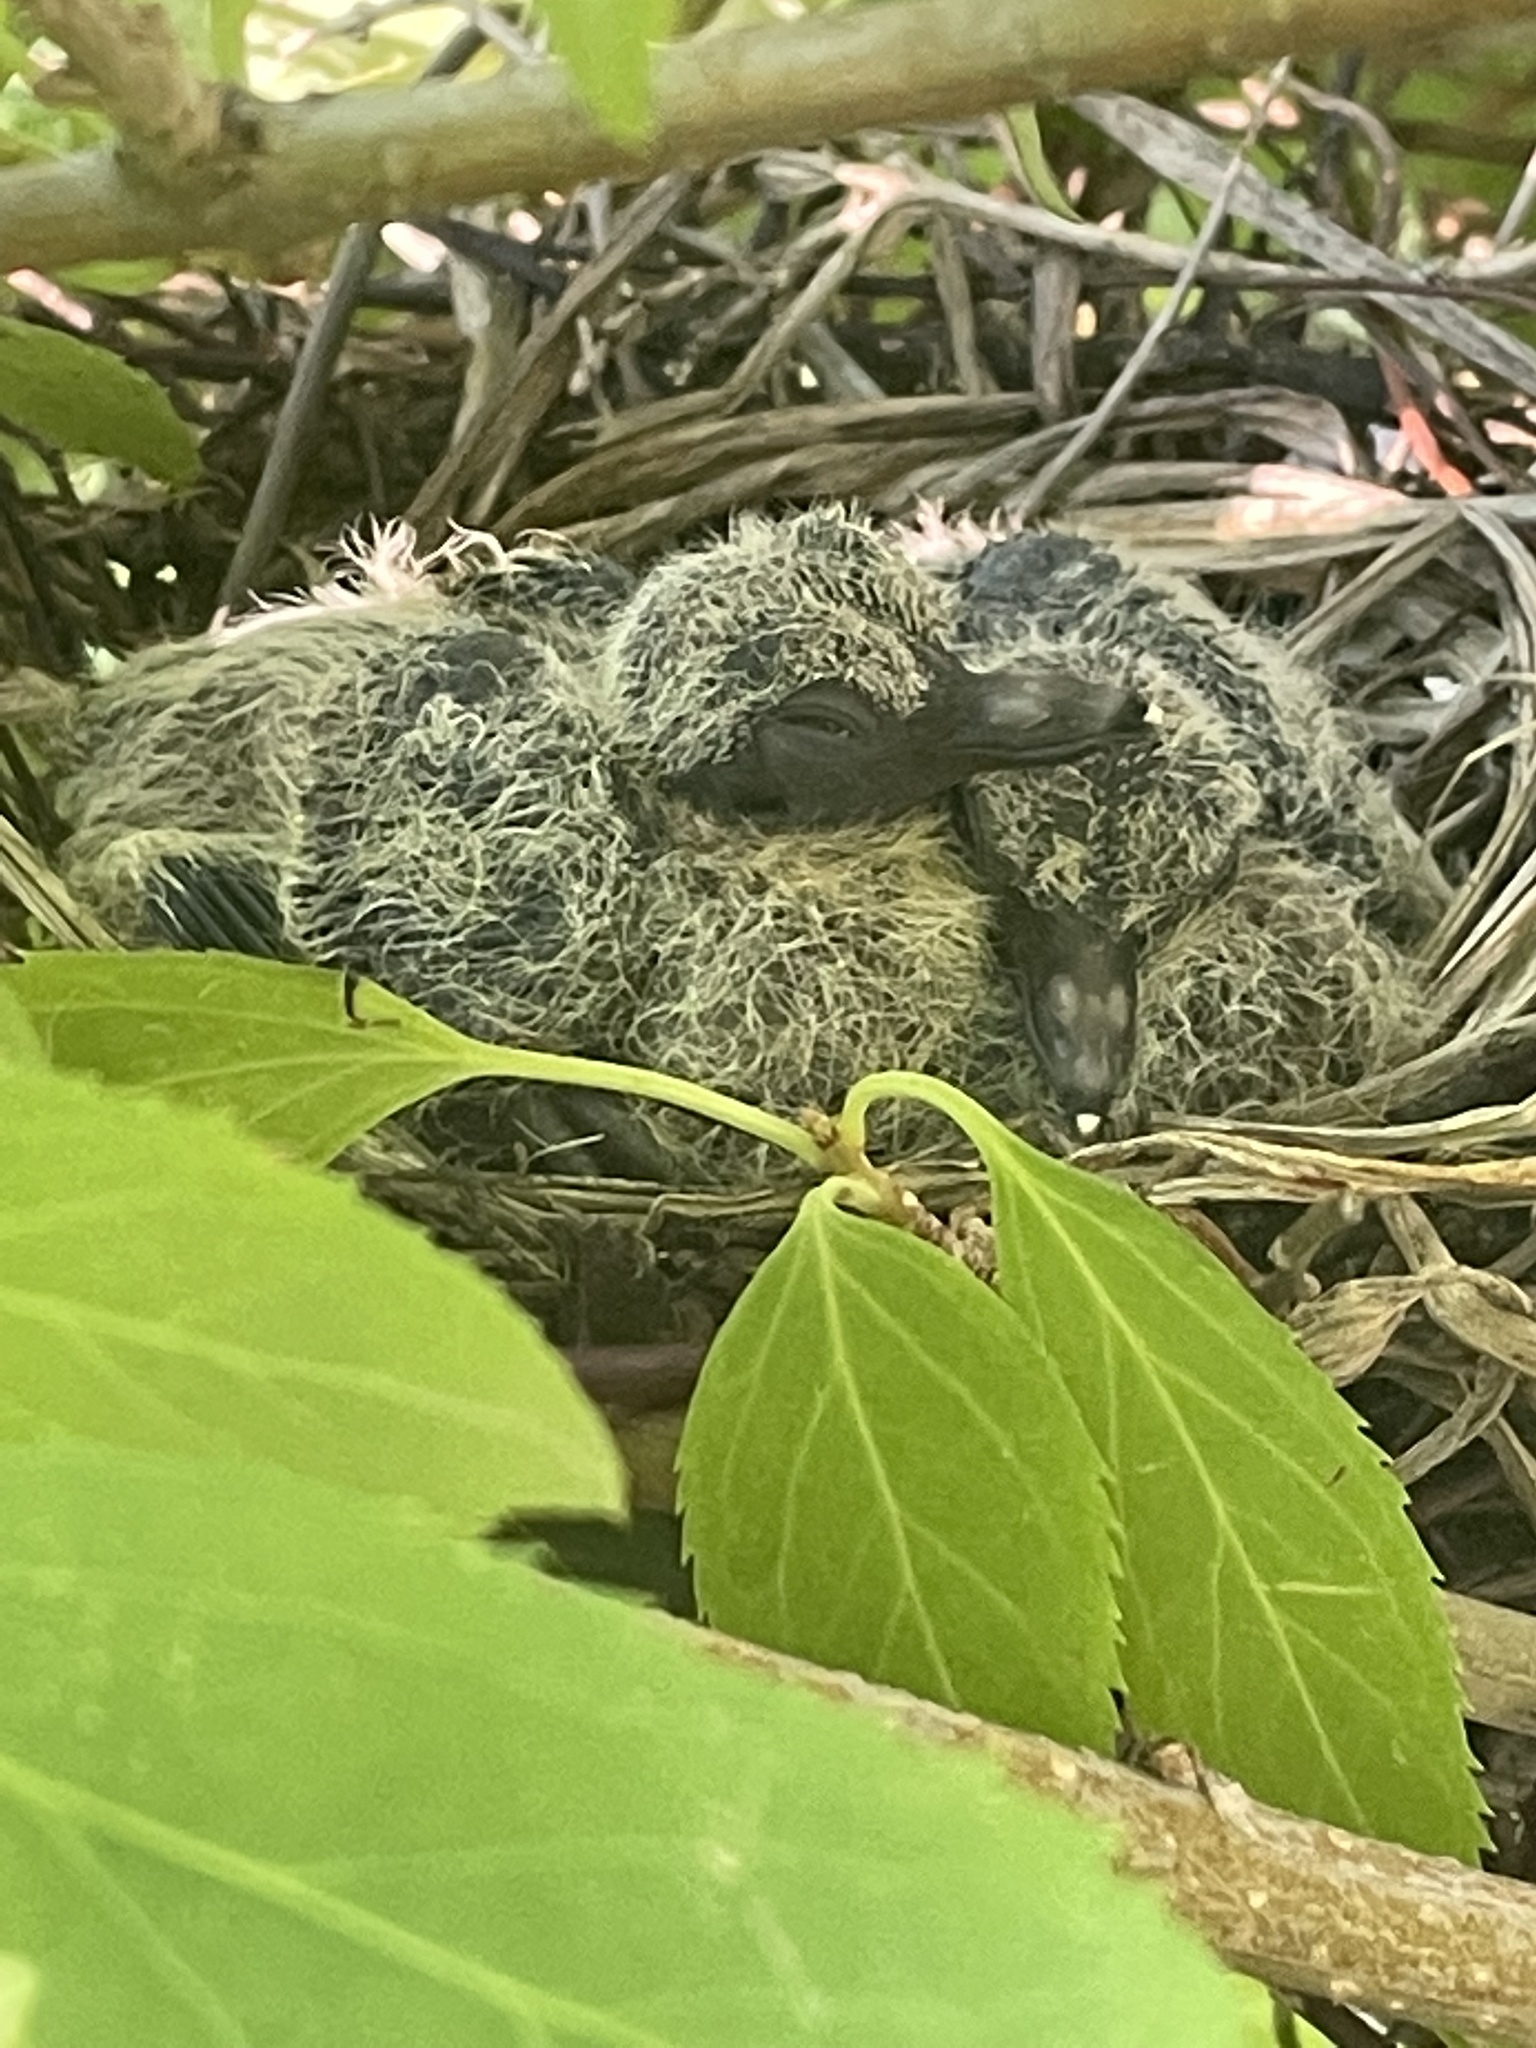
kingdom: Animalia
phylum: Chordata
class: Aves
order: Columbiformes
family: Columbidae
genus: Zenaida
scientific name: Zenaida macroura
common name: Mourning dove
